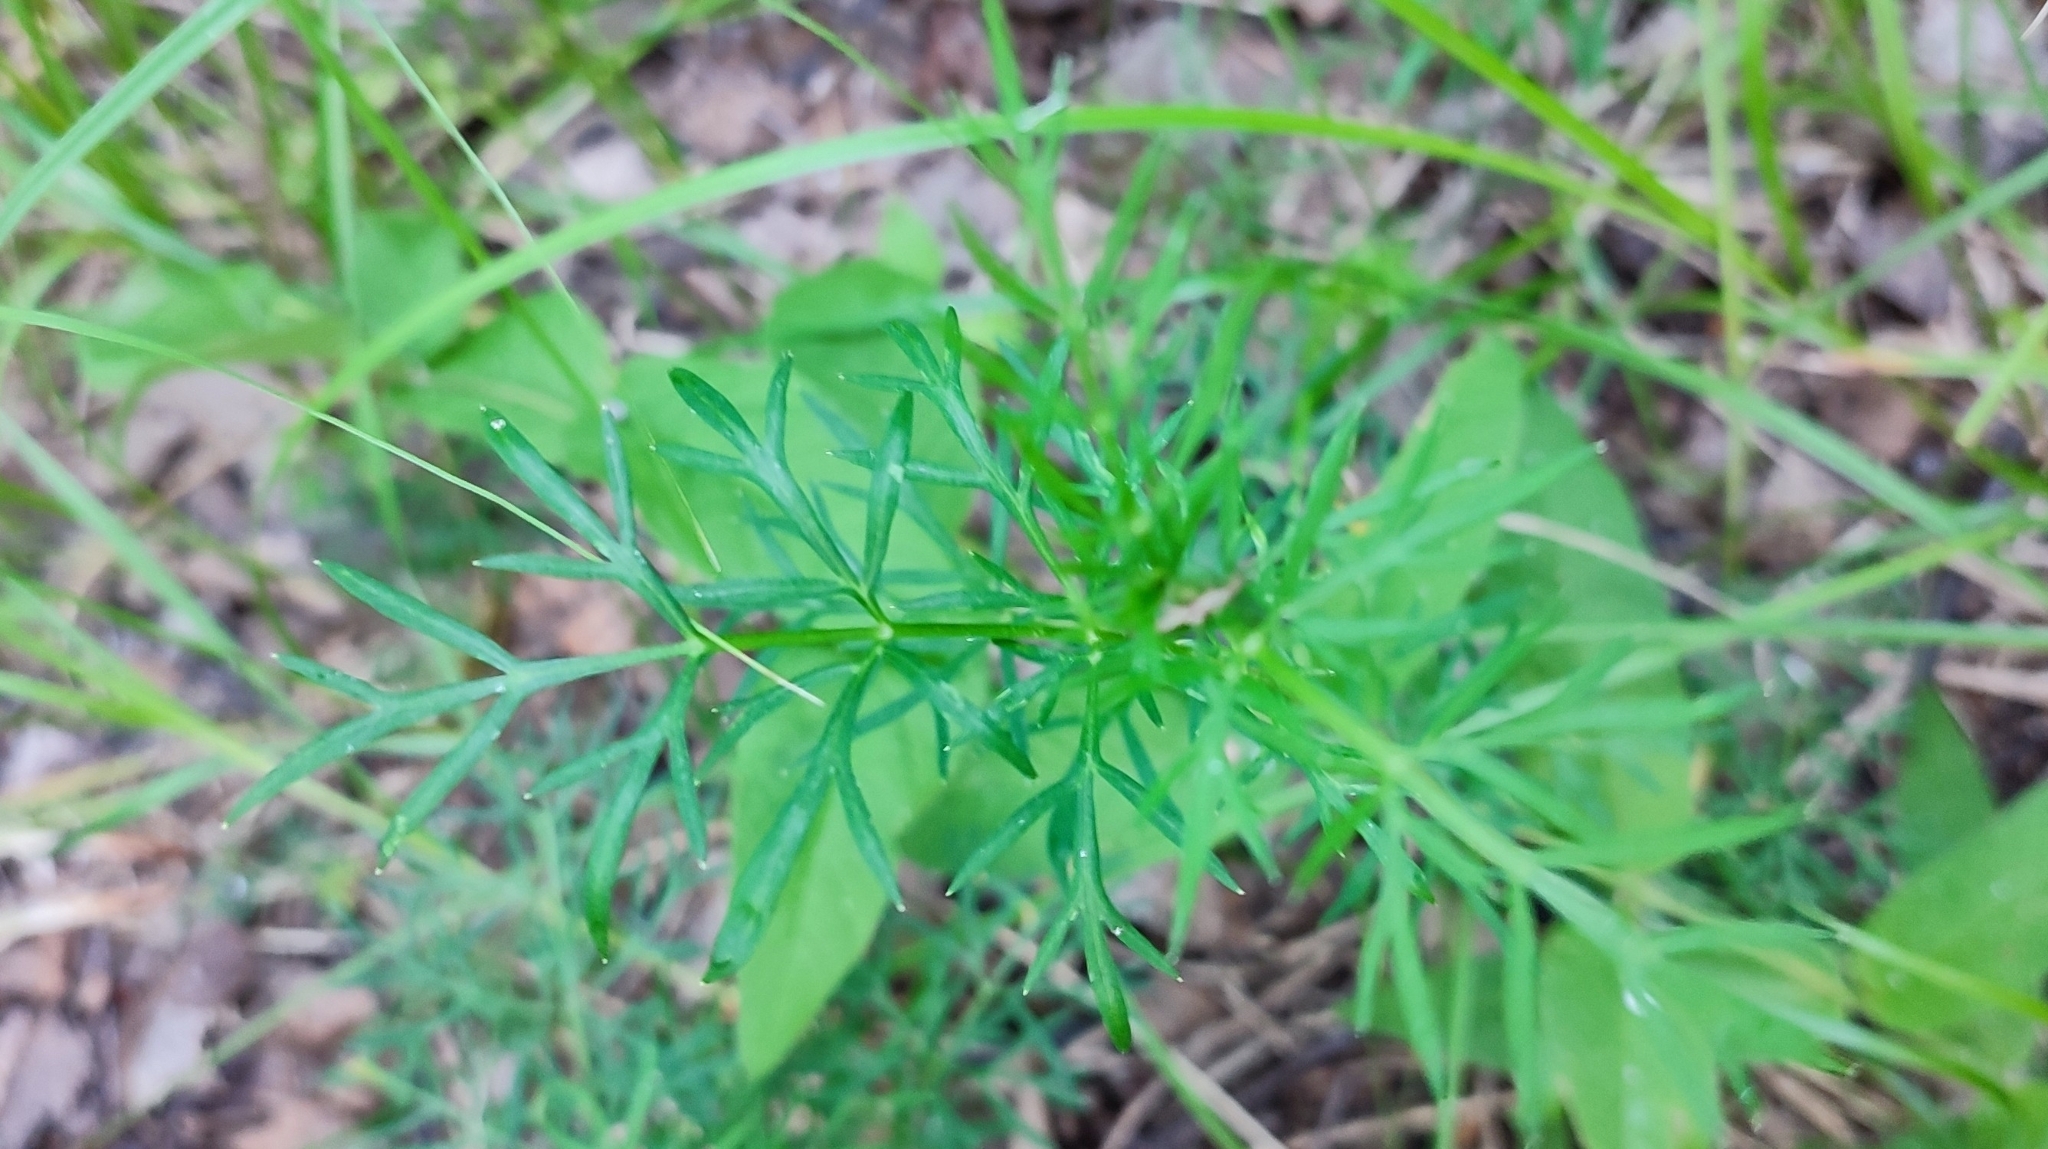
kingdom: Plantae
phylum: Tracheophyta
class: Magnoliopsida
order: Apiales
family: Apiaceae
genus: Kadenia
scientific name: Kadenia dubia
